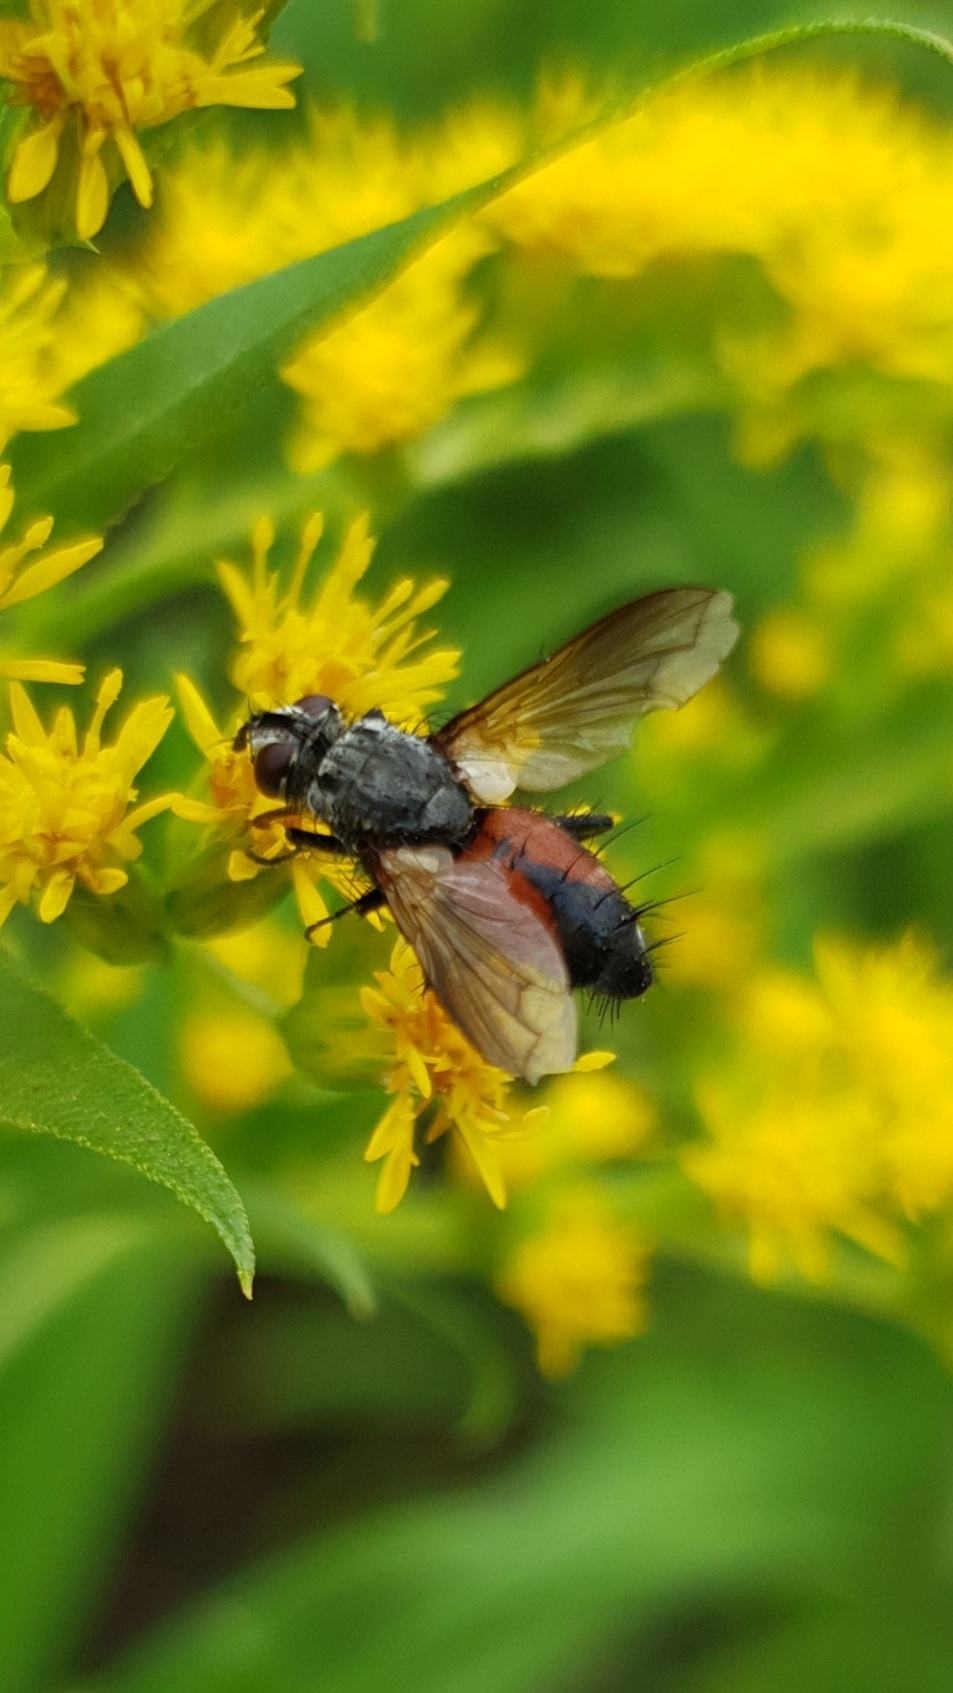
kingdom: Animalia
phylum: Arthropoda
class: Insecta
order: Diptera
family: Tachinidae
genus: Eriothrix
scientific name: Eriothrix rufomaculatus
